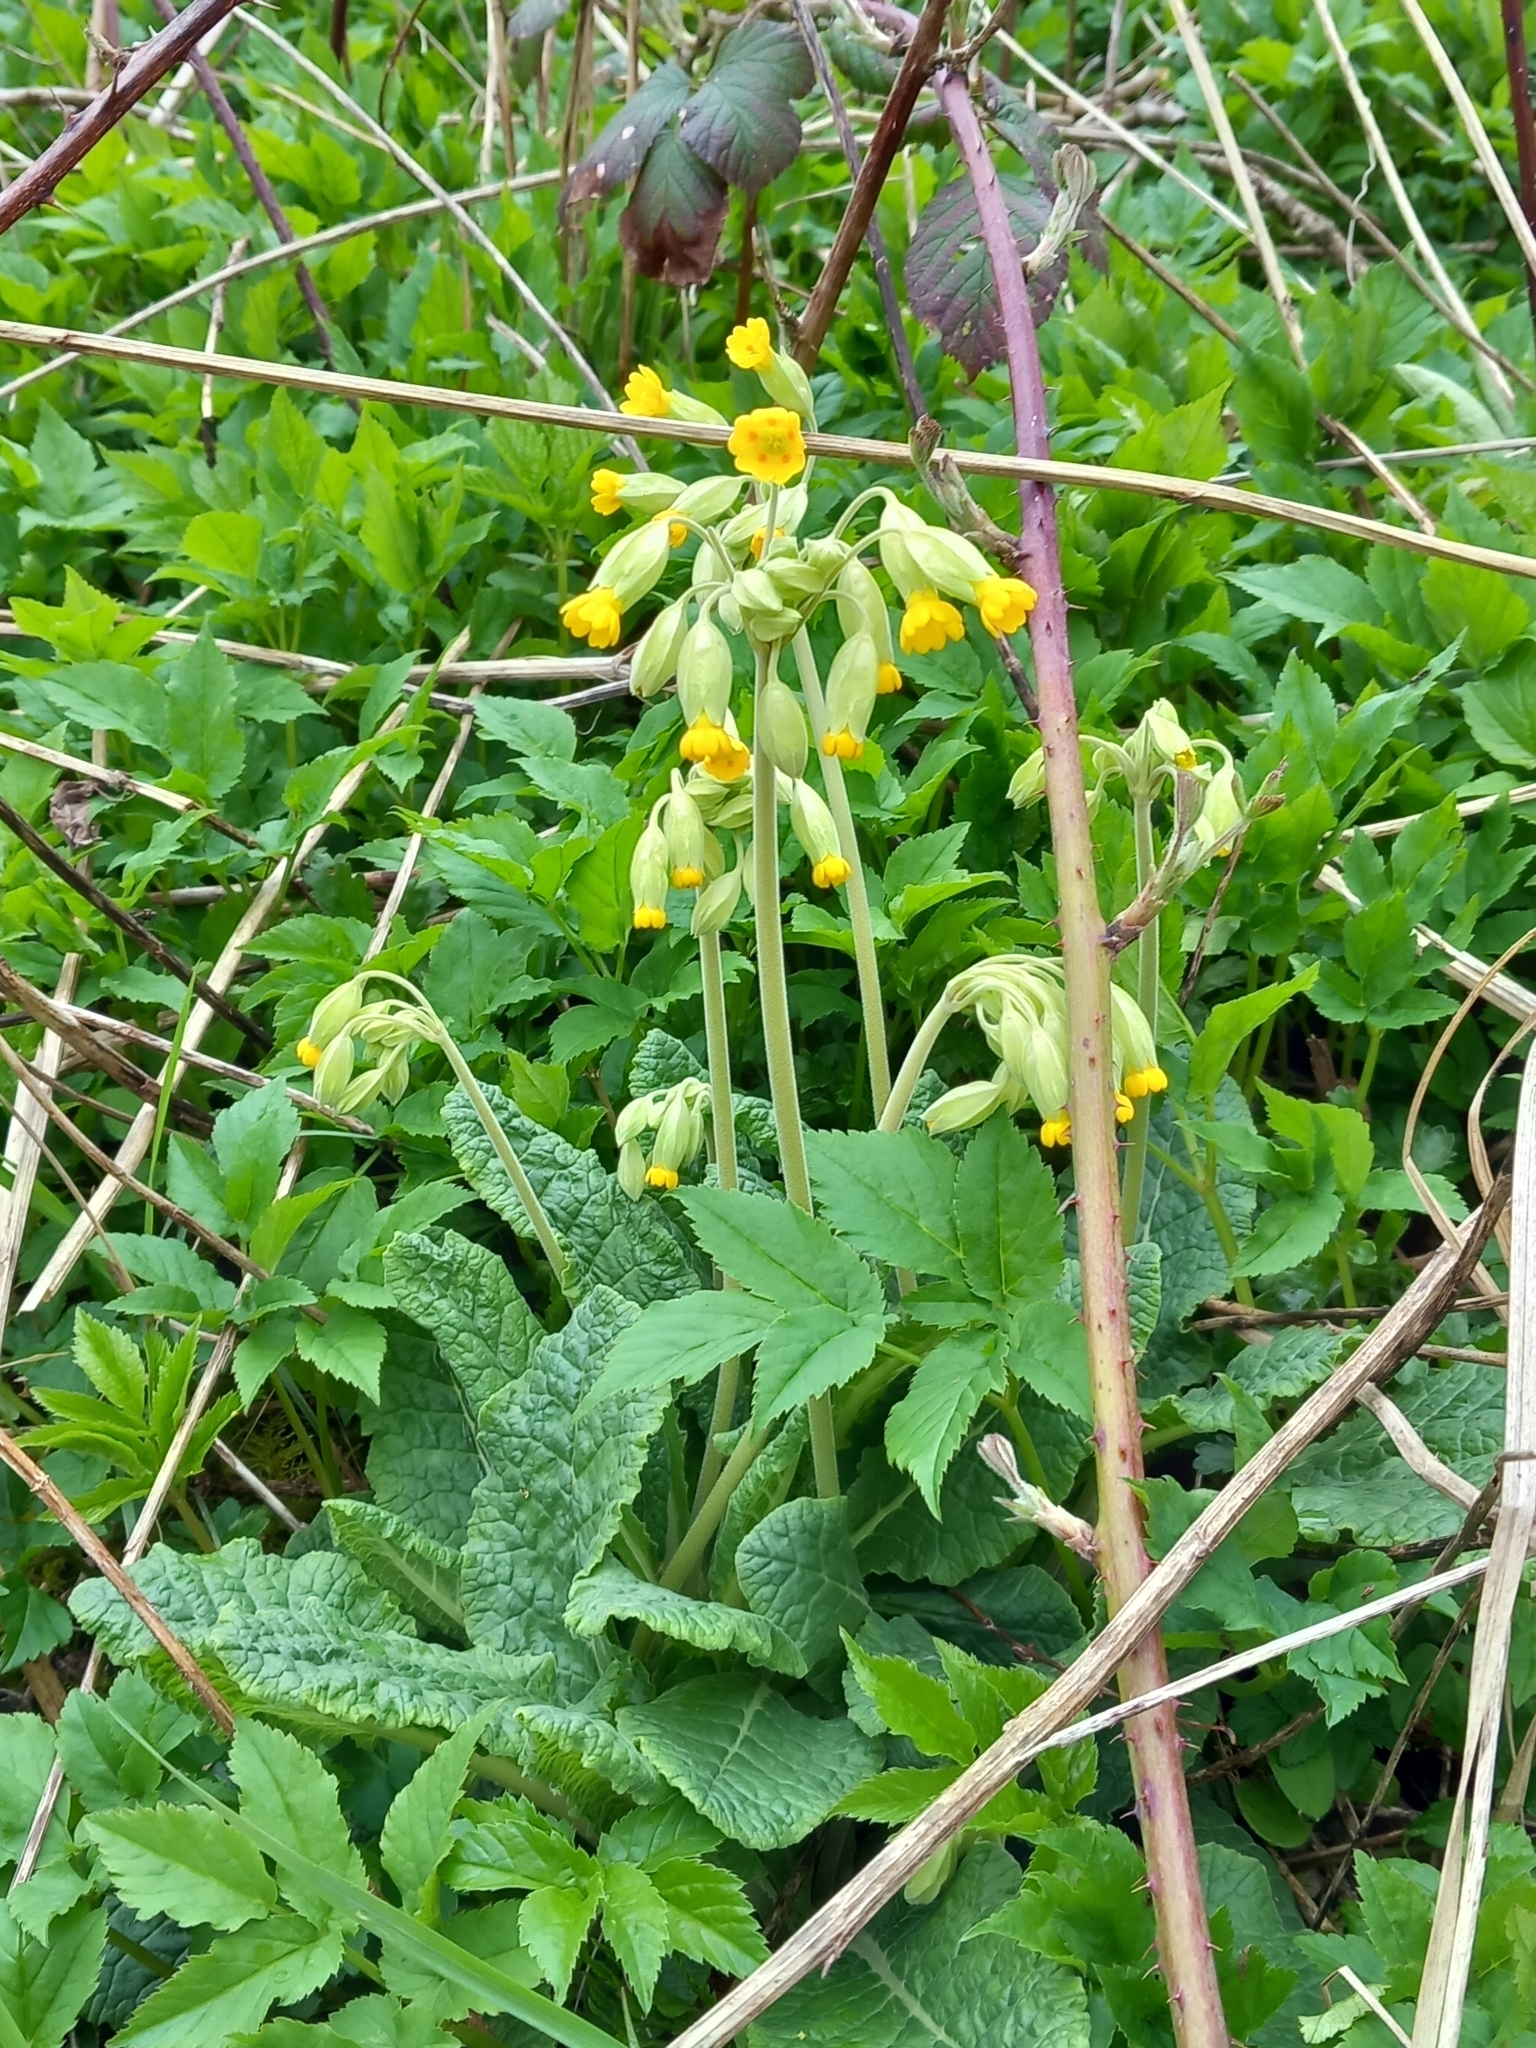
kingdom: Plantae
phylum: Tracheophyta
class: Magnoliopsida
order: Ericales
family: Primulaceae
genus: Primula
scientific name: Primula veris
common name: Cowslip
